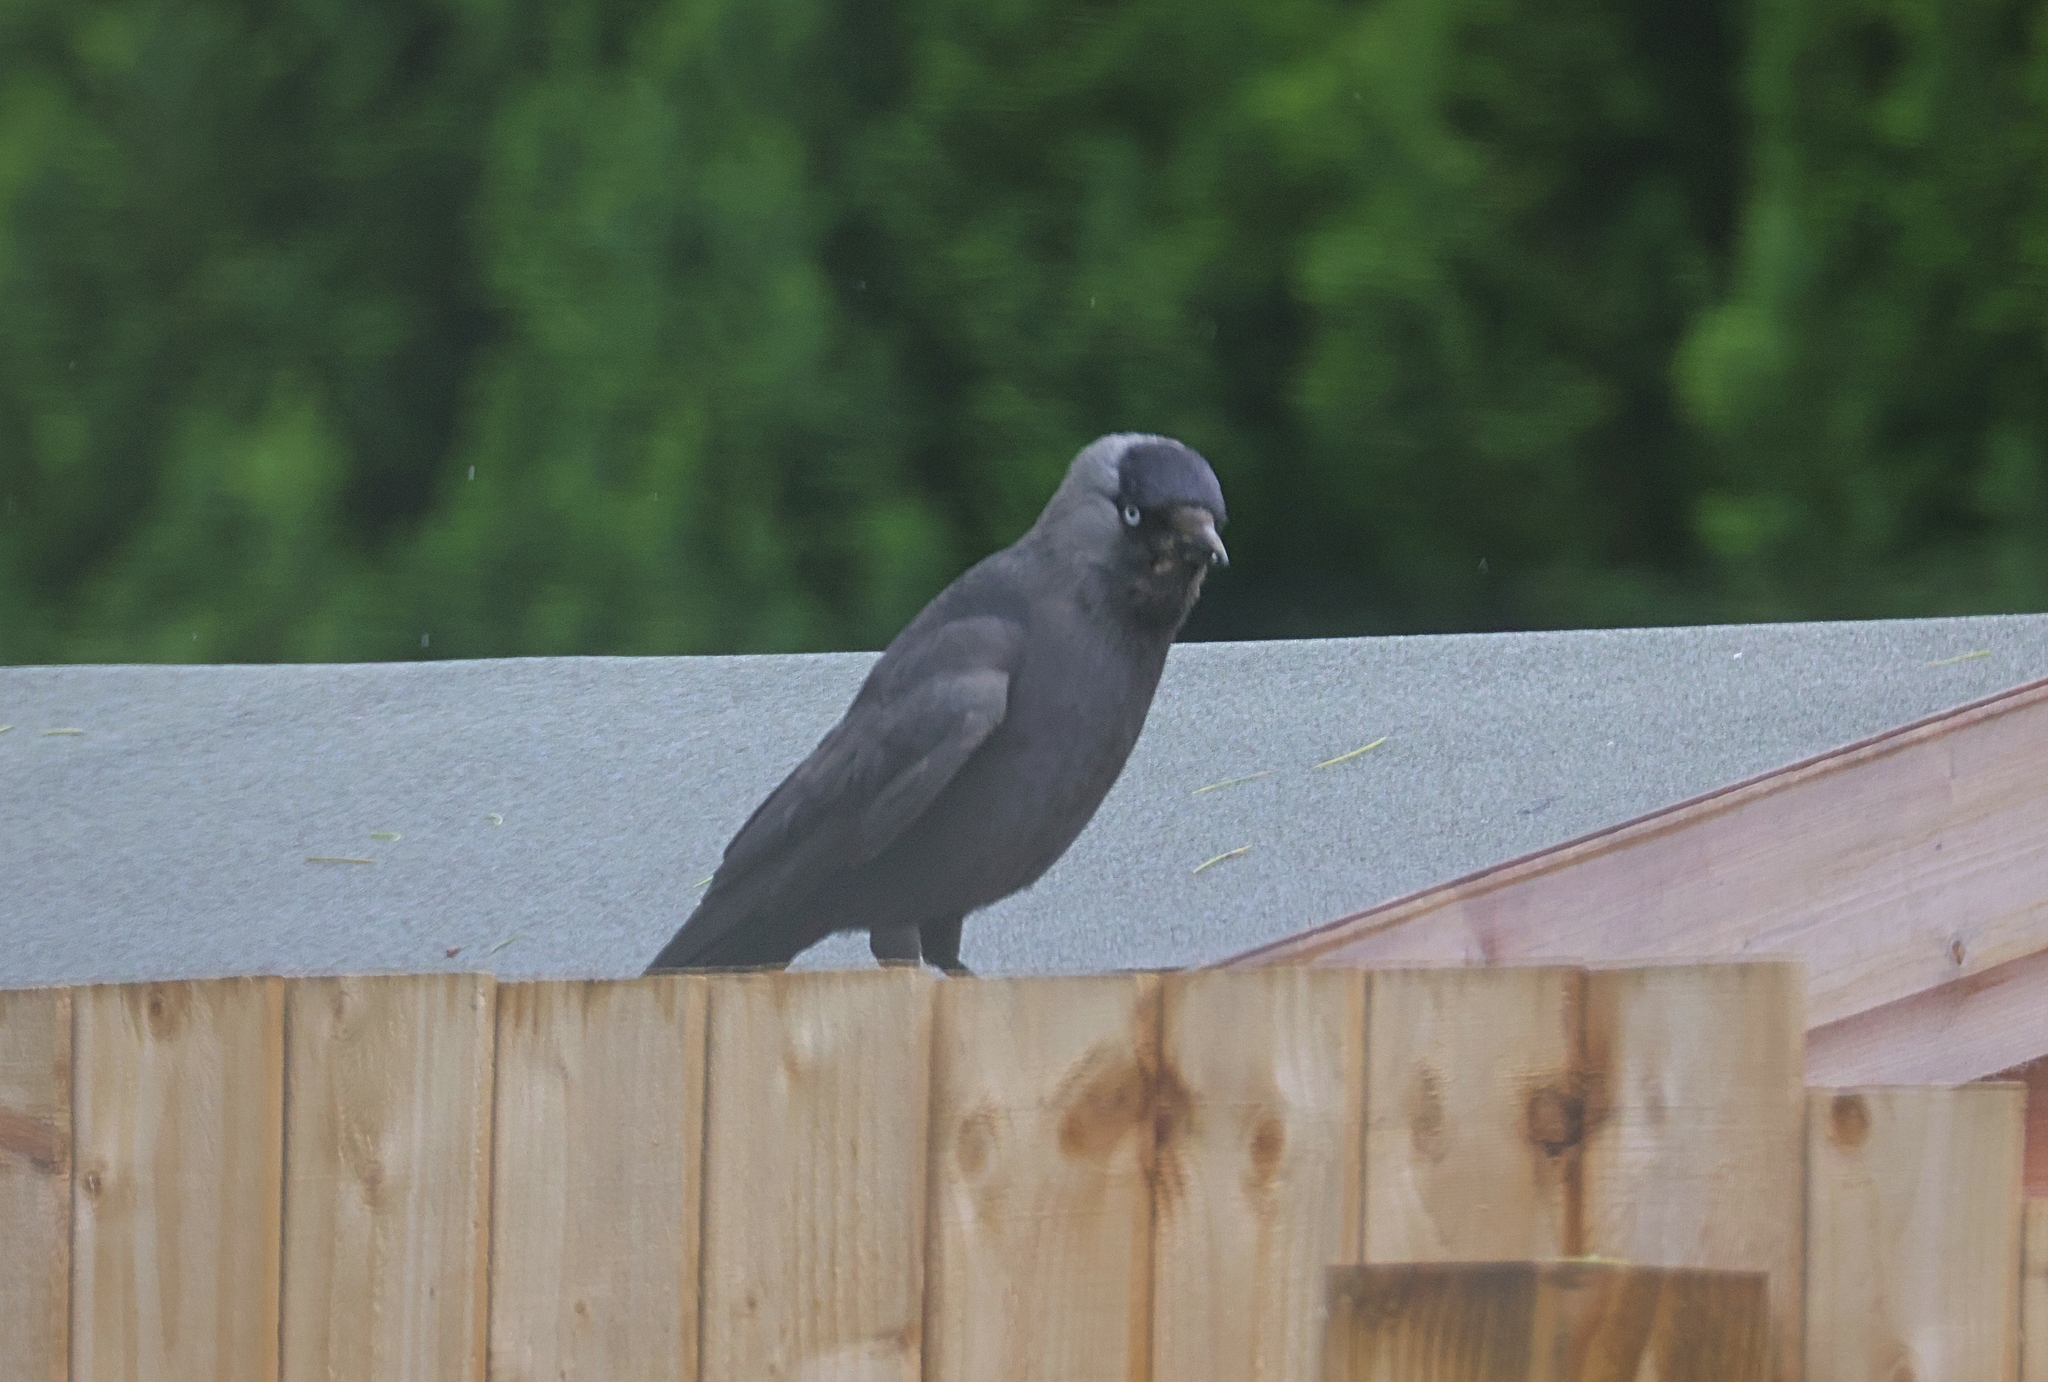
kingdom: Animalia
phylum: Chordata
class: Aves
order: Passeriformes
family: Corvidae
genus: Coloeus
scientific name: Coloeus monedula
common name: Western jackdaw
